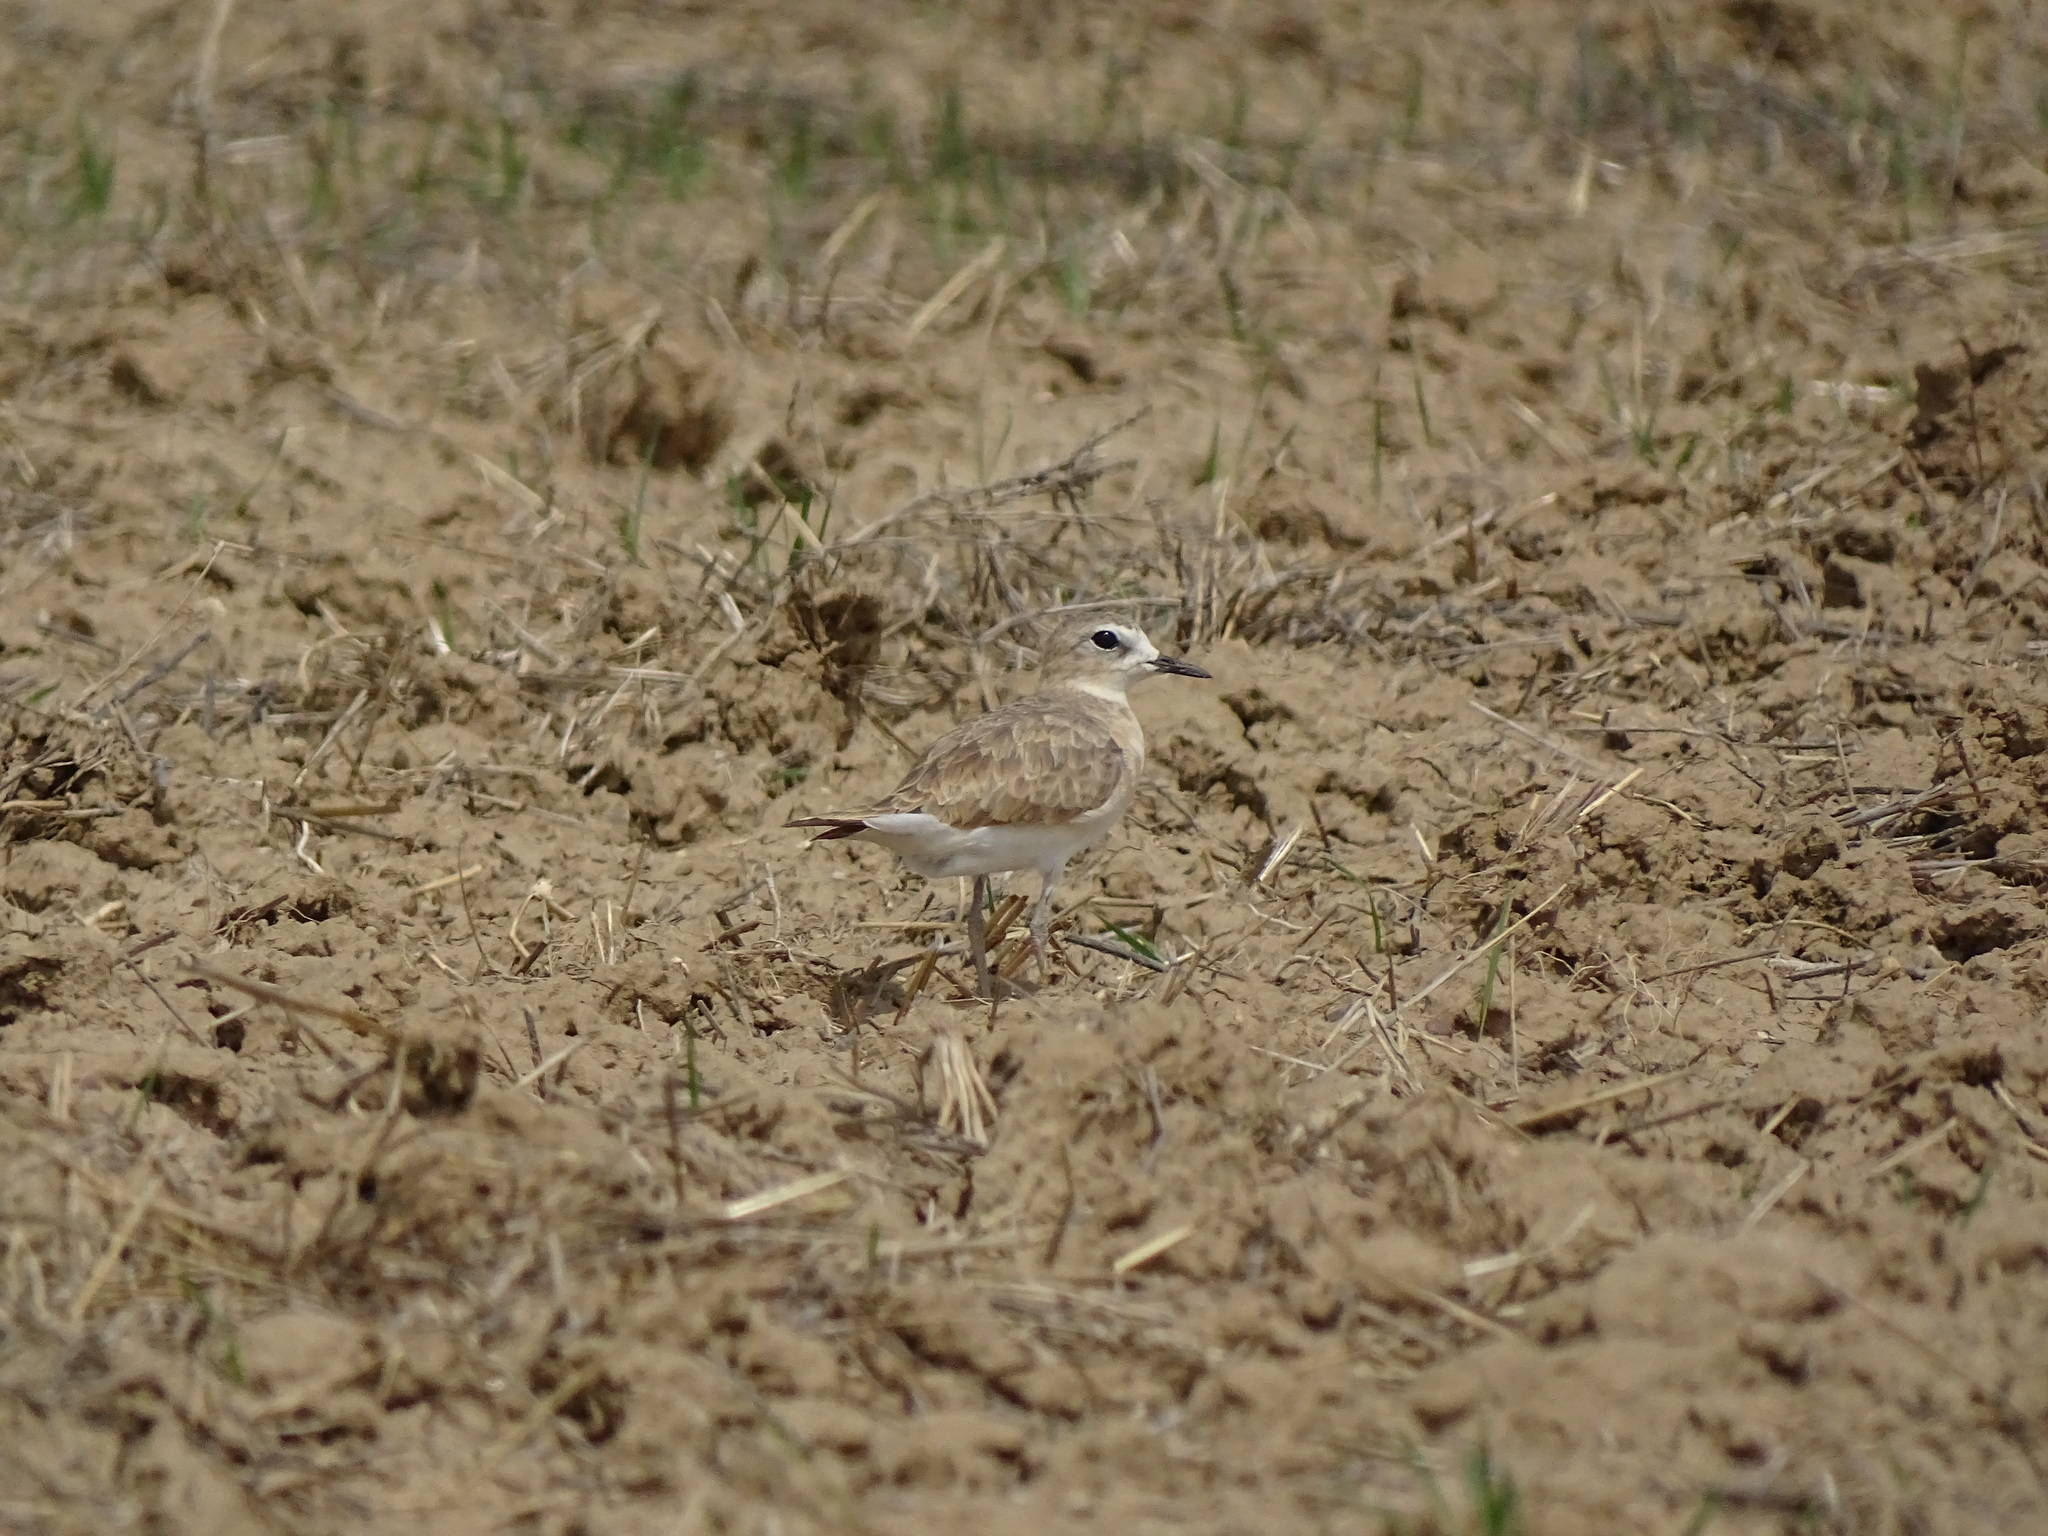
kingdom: Animalia
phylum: Chordata
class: Aves
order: Charadriiformes
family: Charadriidae
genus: Anarhynchus
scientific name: Anarhynchus
